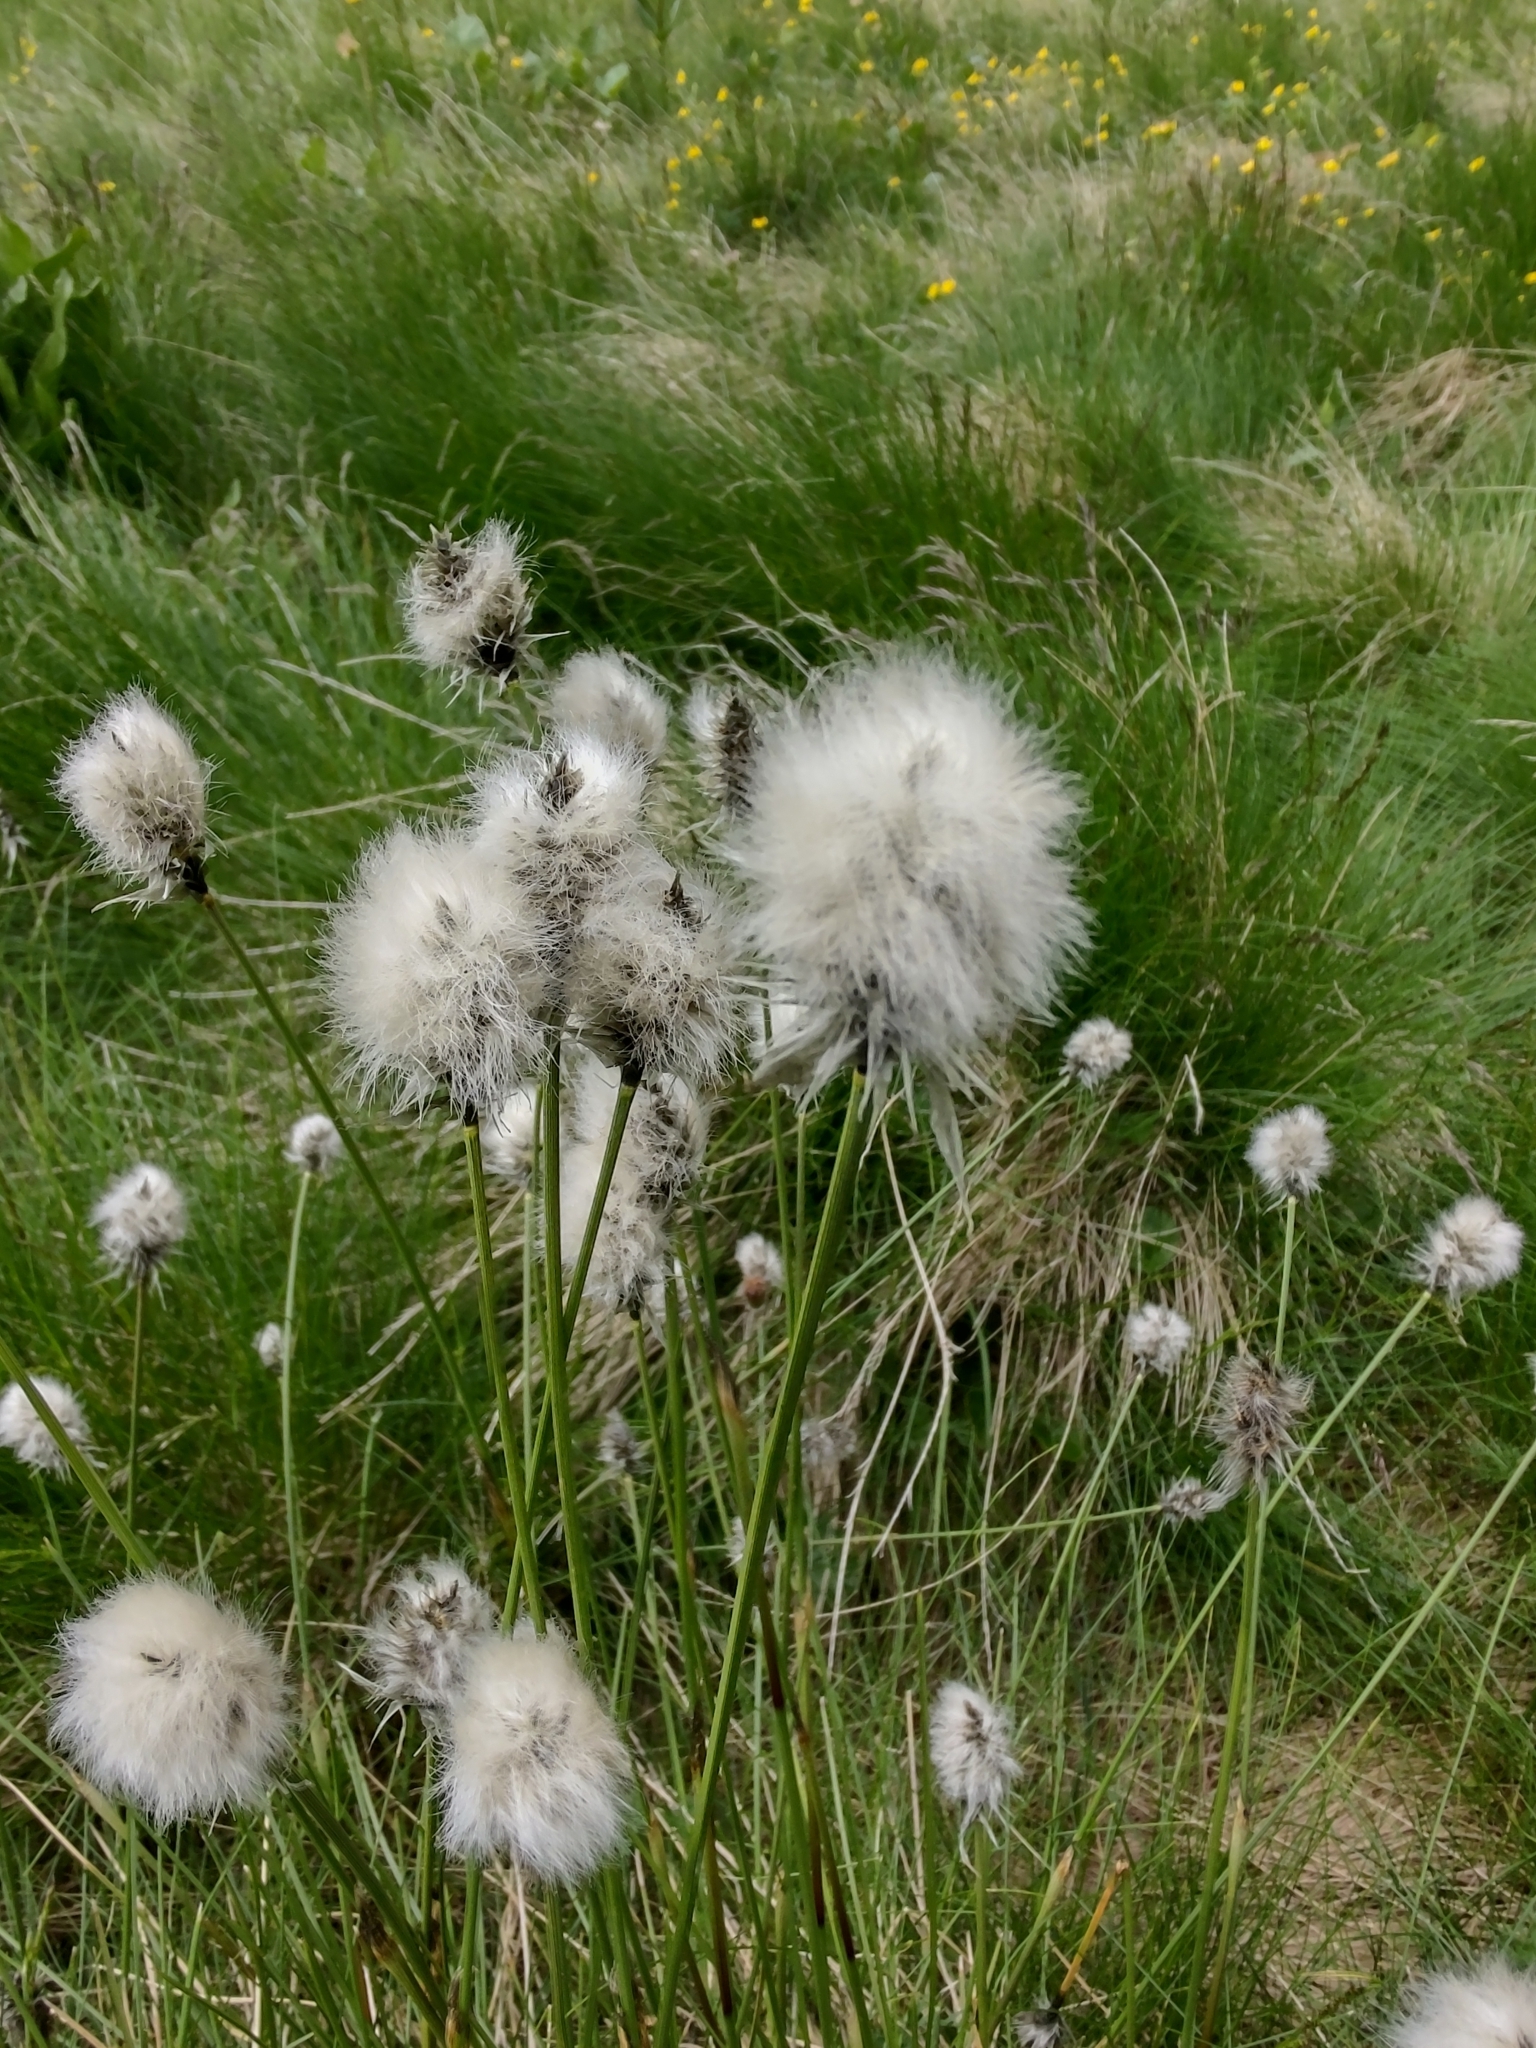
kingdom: Plantae
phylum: Tracheophyta
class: Liliopsida
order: Poales
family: Cyperaceae
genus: Eriophorum
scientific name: Eriophorum vaginatum
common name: Hare's-tail cottongrass
